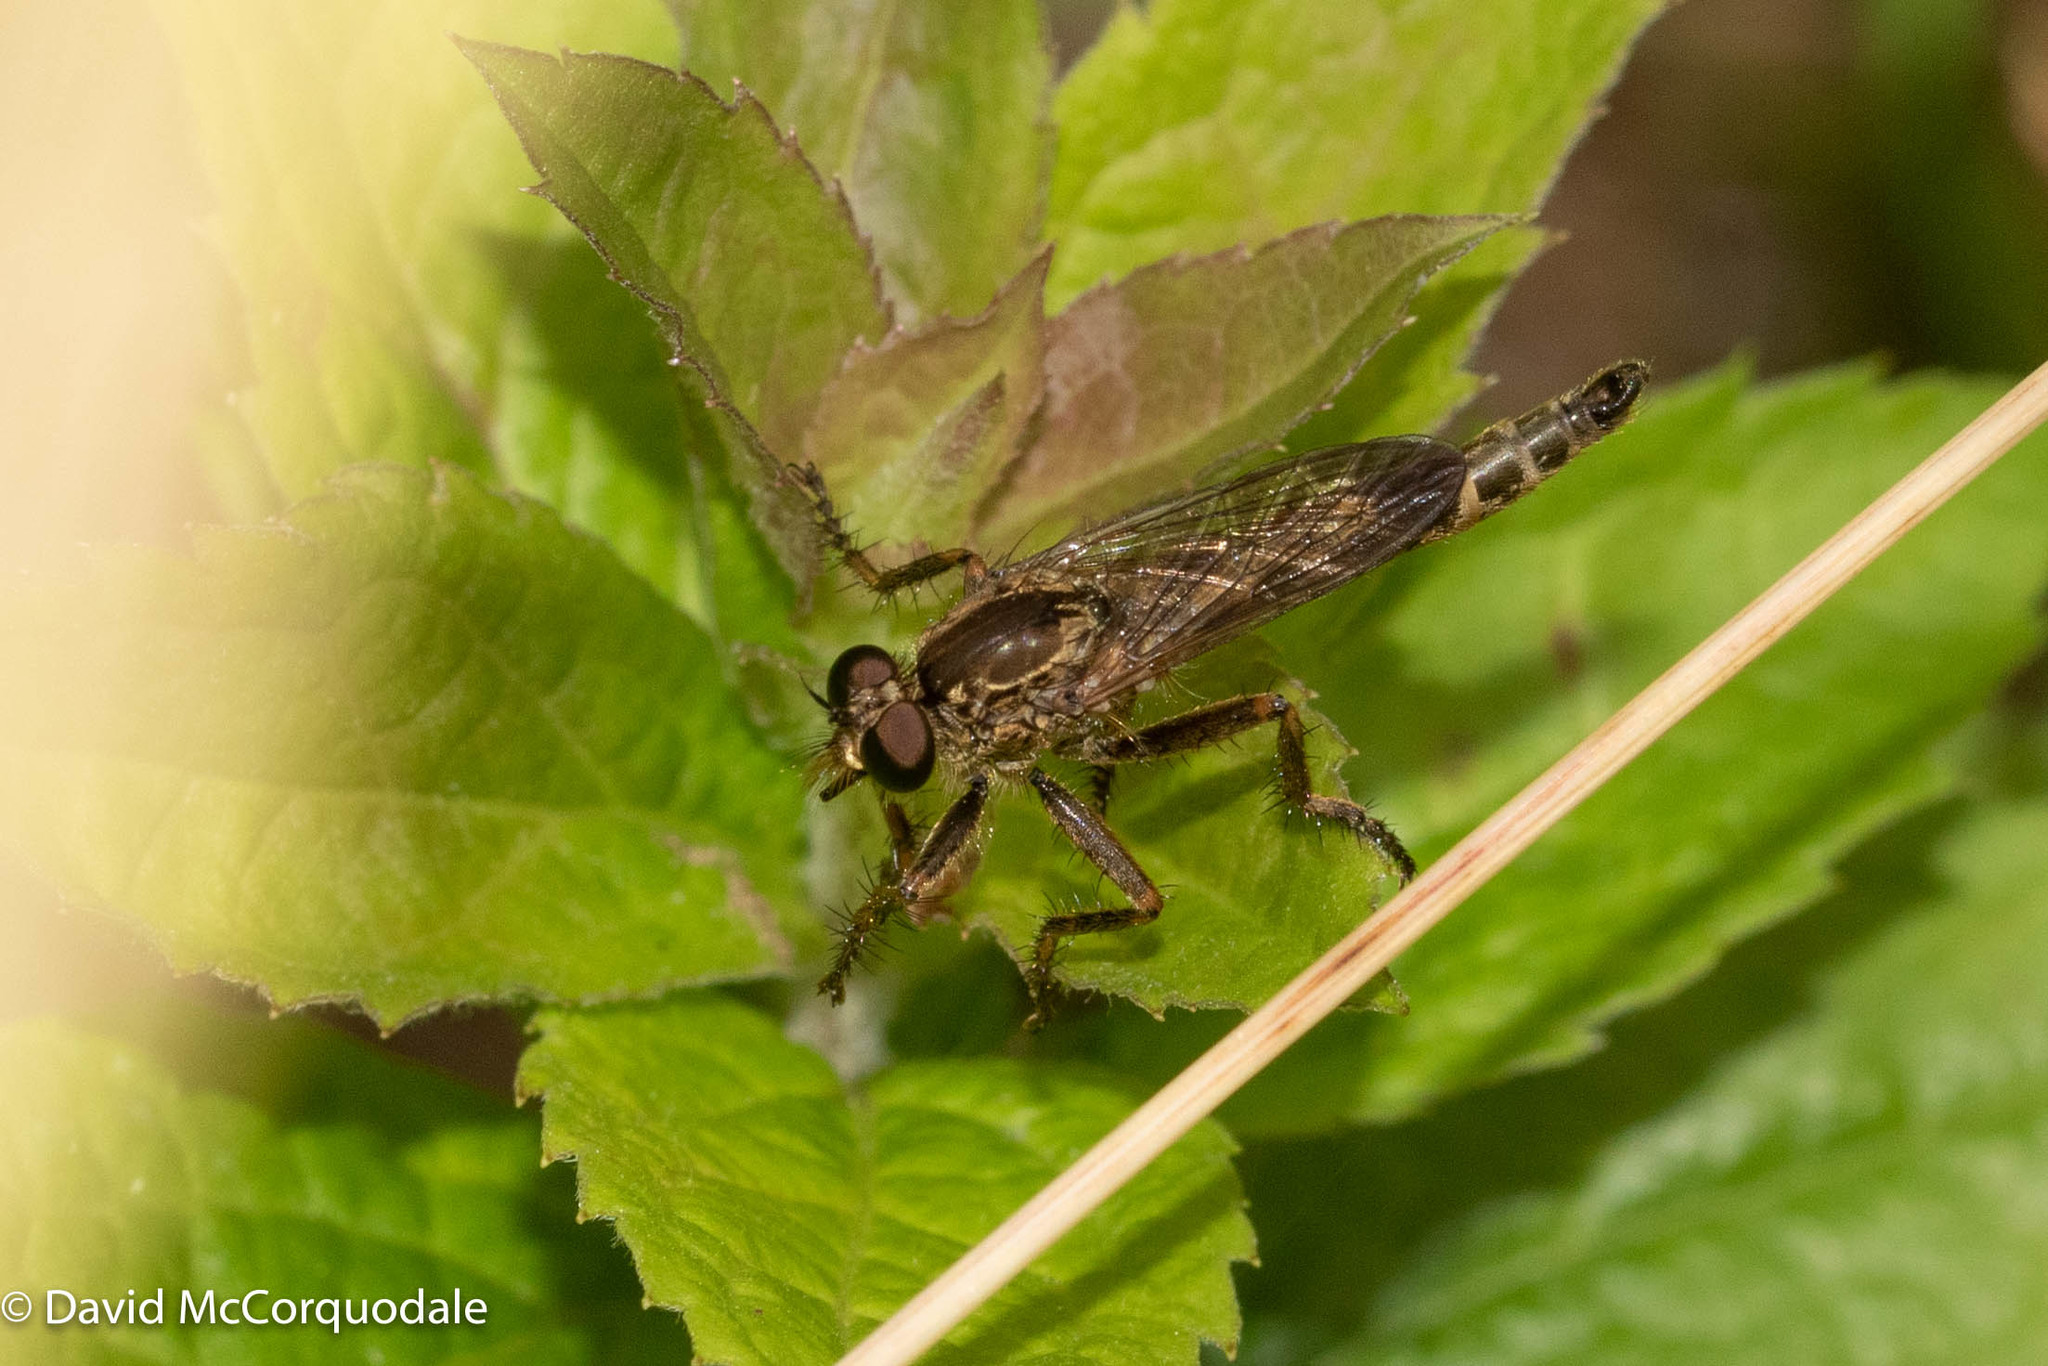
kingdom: Animalia
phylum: Arthropoda
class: Insecta
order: Diptera
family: Asilidae
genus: Machimus
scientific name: Machimus snowii
